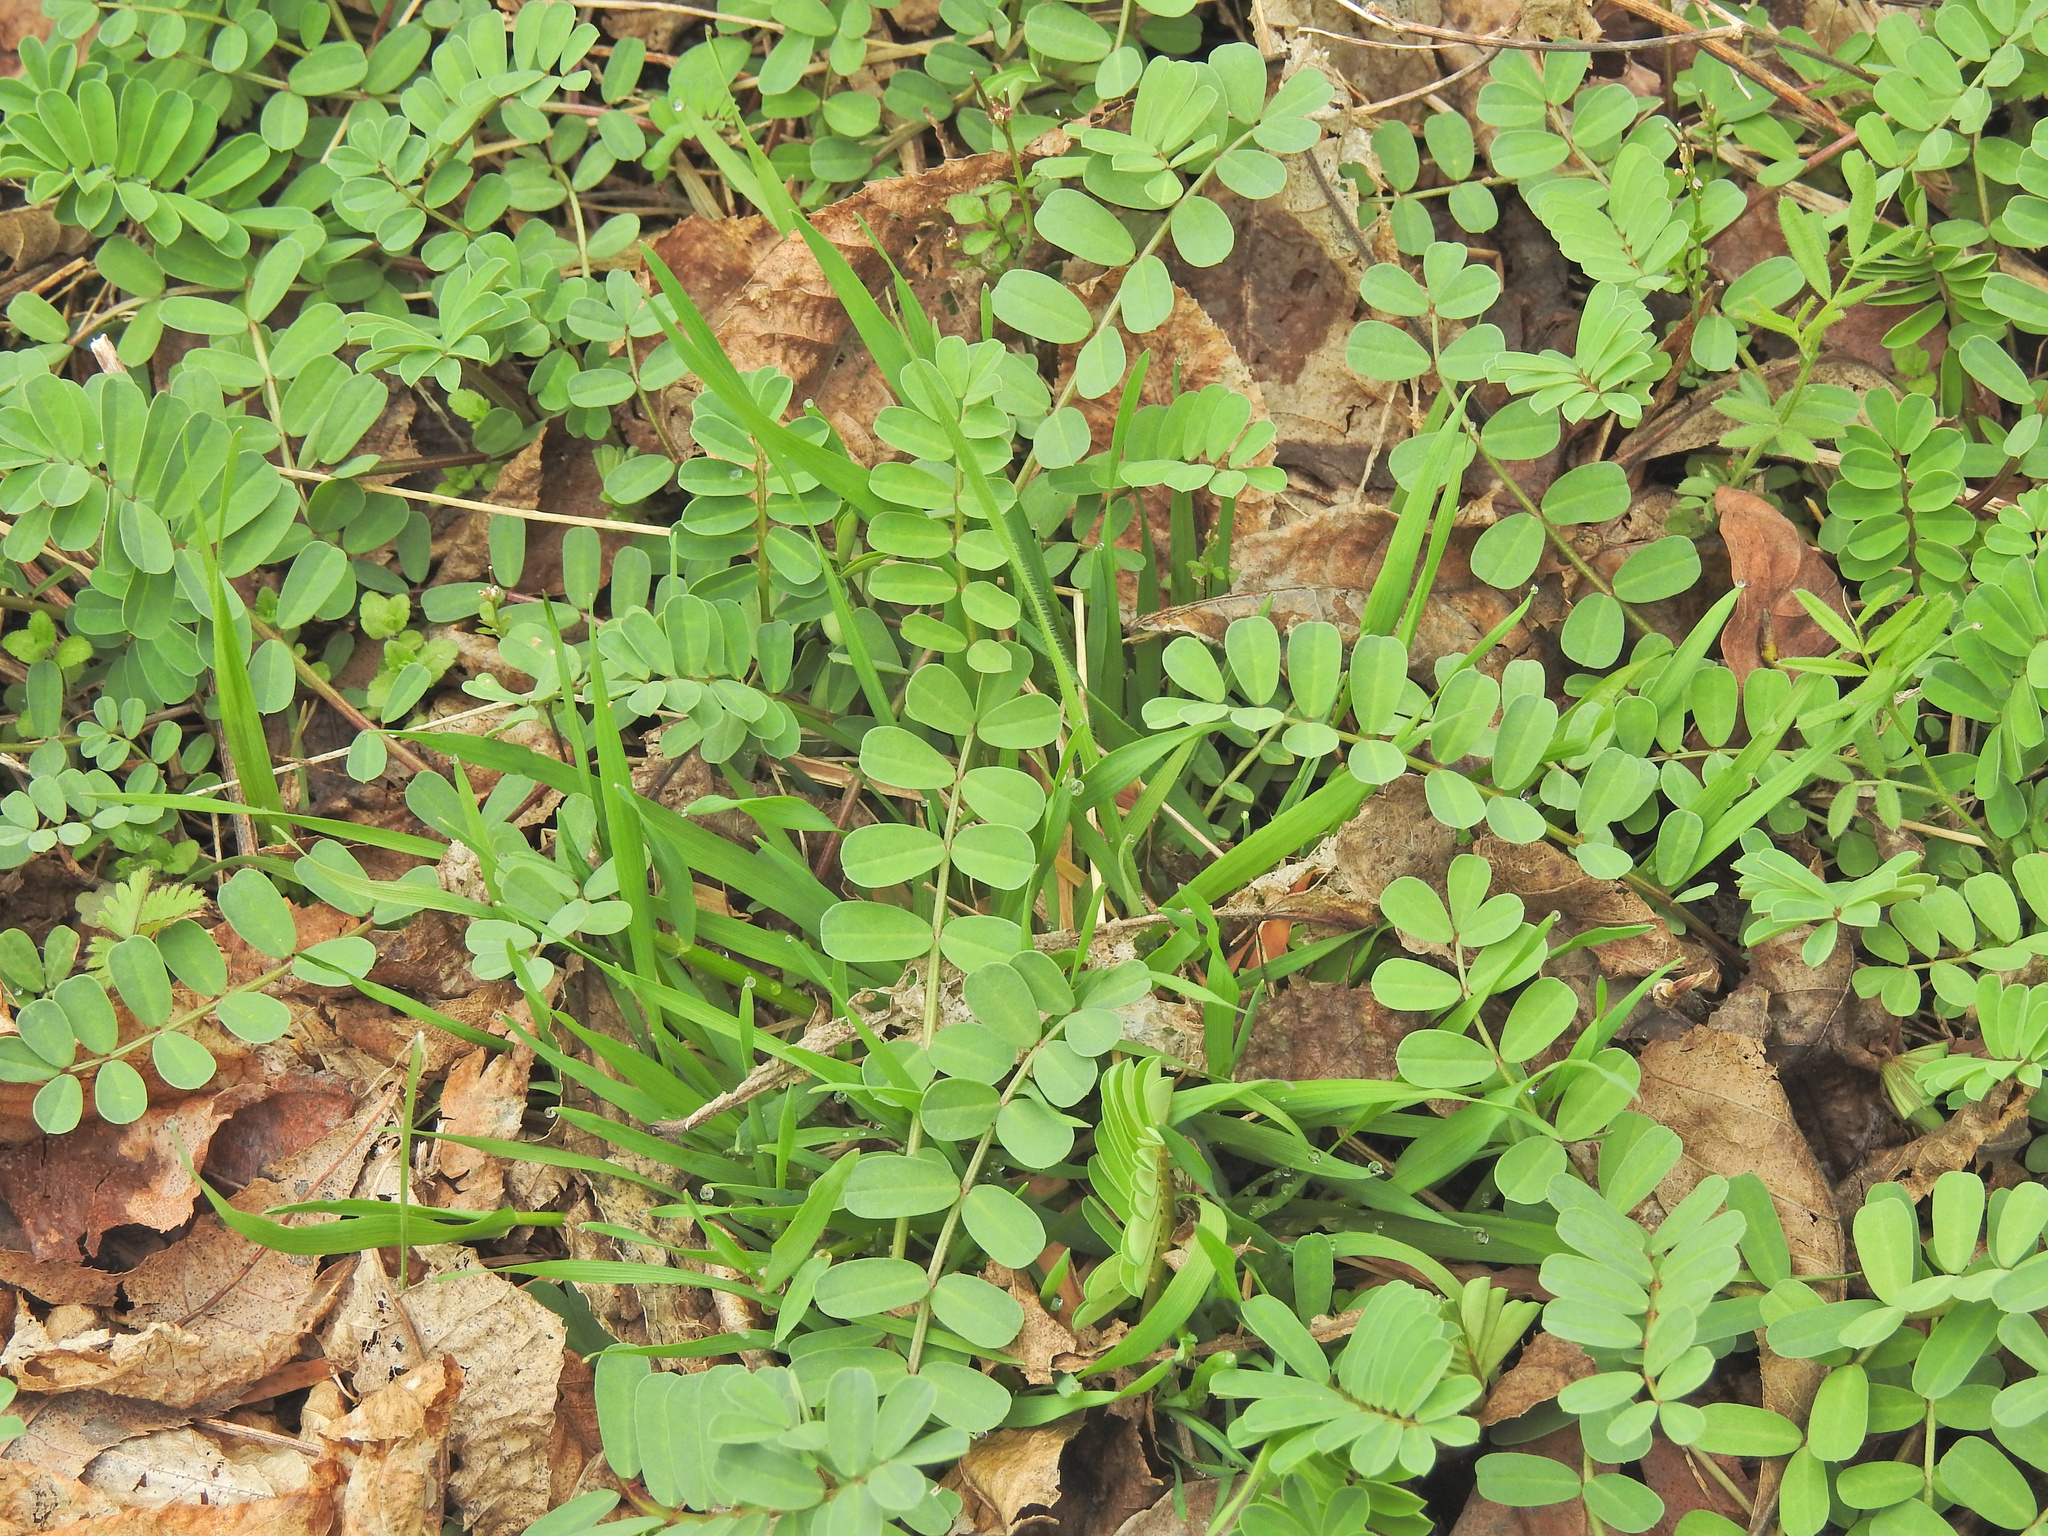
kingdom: Plantae
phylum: Tracheophyta
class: Magnoliopsida
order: Fabales
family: Fabaceae
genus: Coronilla
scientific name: Coronilla varia
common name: Crownvetch
